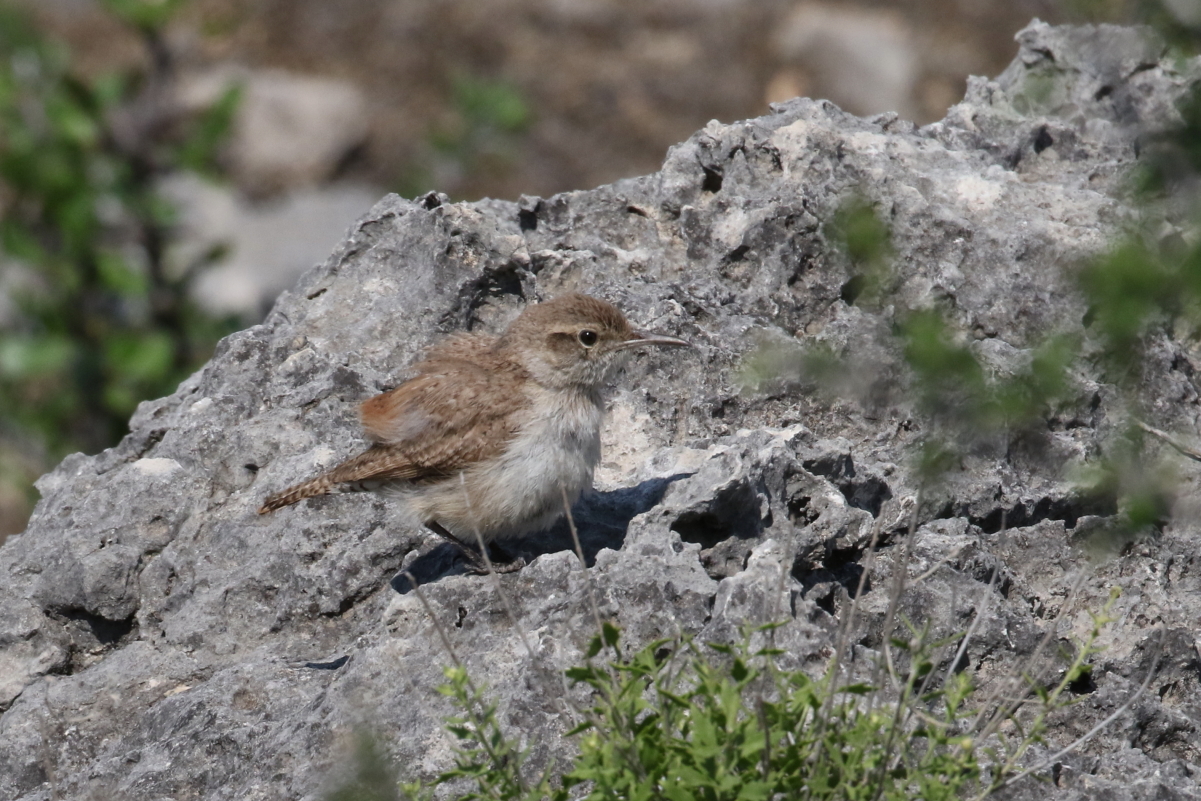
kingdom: Animalia
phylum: Chordata
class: Aves
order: Passeriformes
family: Troglodytidae
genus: Salpinctes
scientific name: Salpinctes obsoletus
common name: Rock wren
